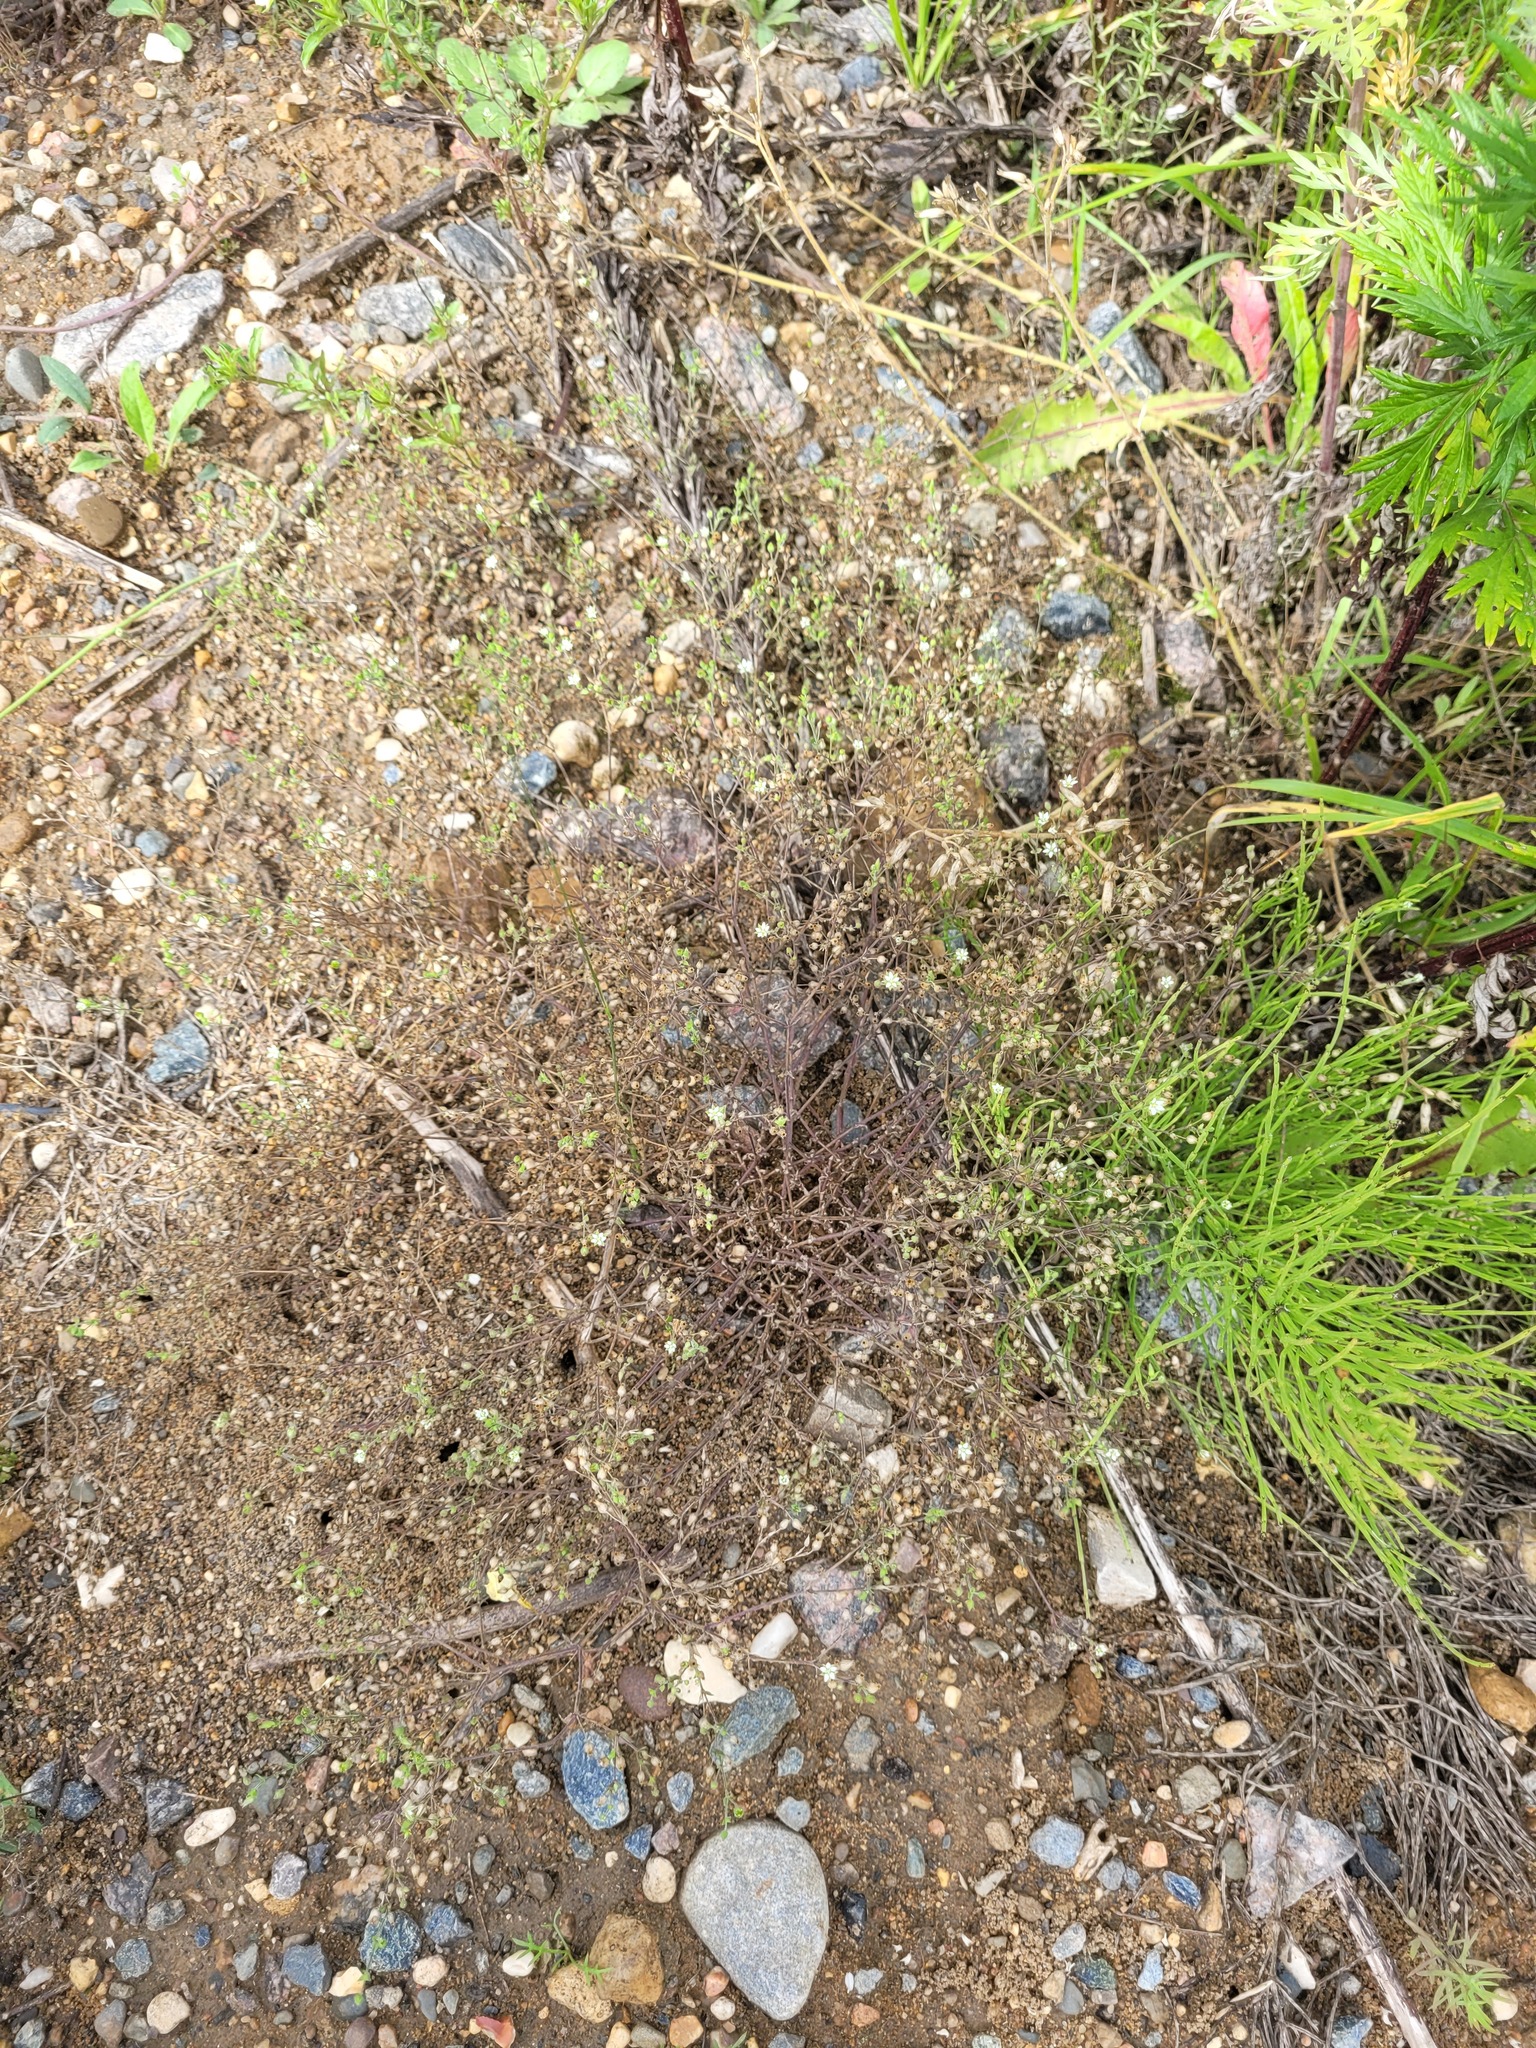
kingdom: Plantae
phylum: Tracheophyta
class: Magnoliopsida
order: Caryophyllales
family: Caryophyllaceae
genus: Arenaria
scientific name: Arenaria serpyllifolia
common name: Thyme-leaved sandwort
